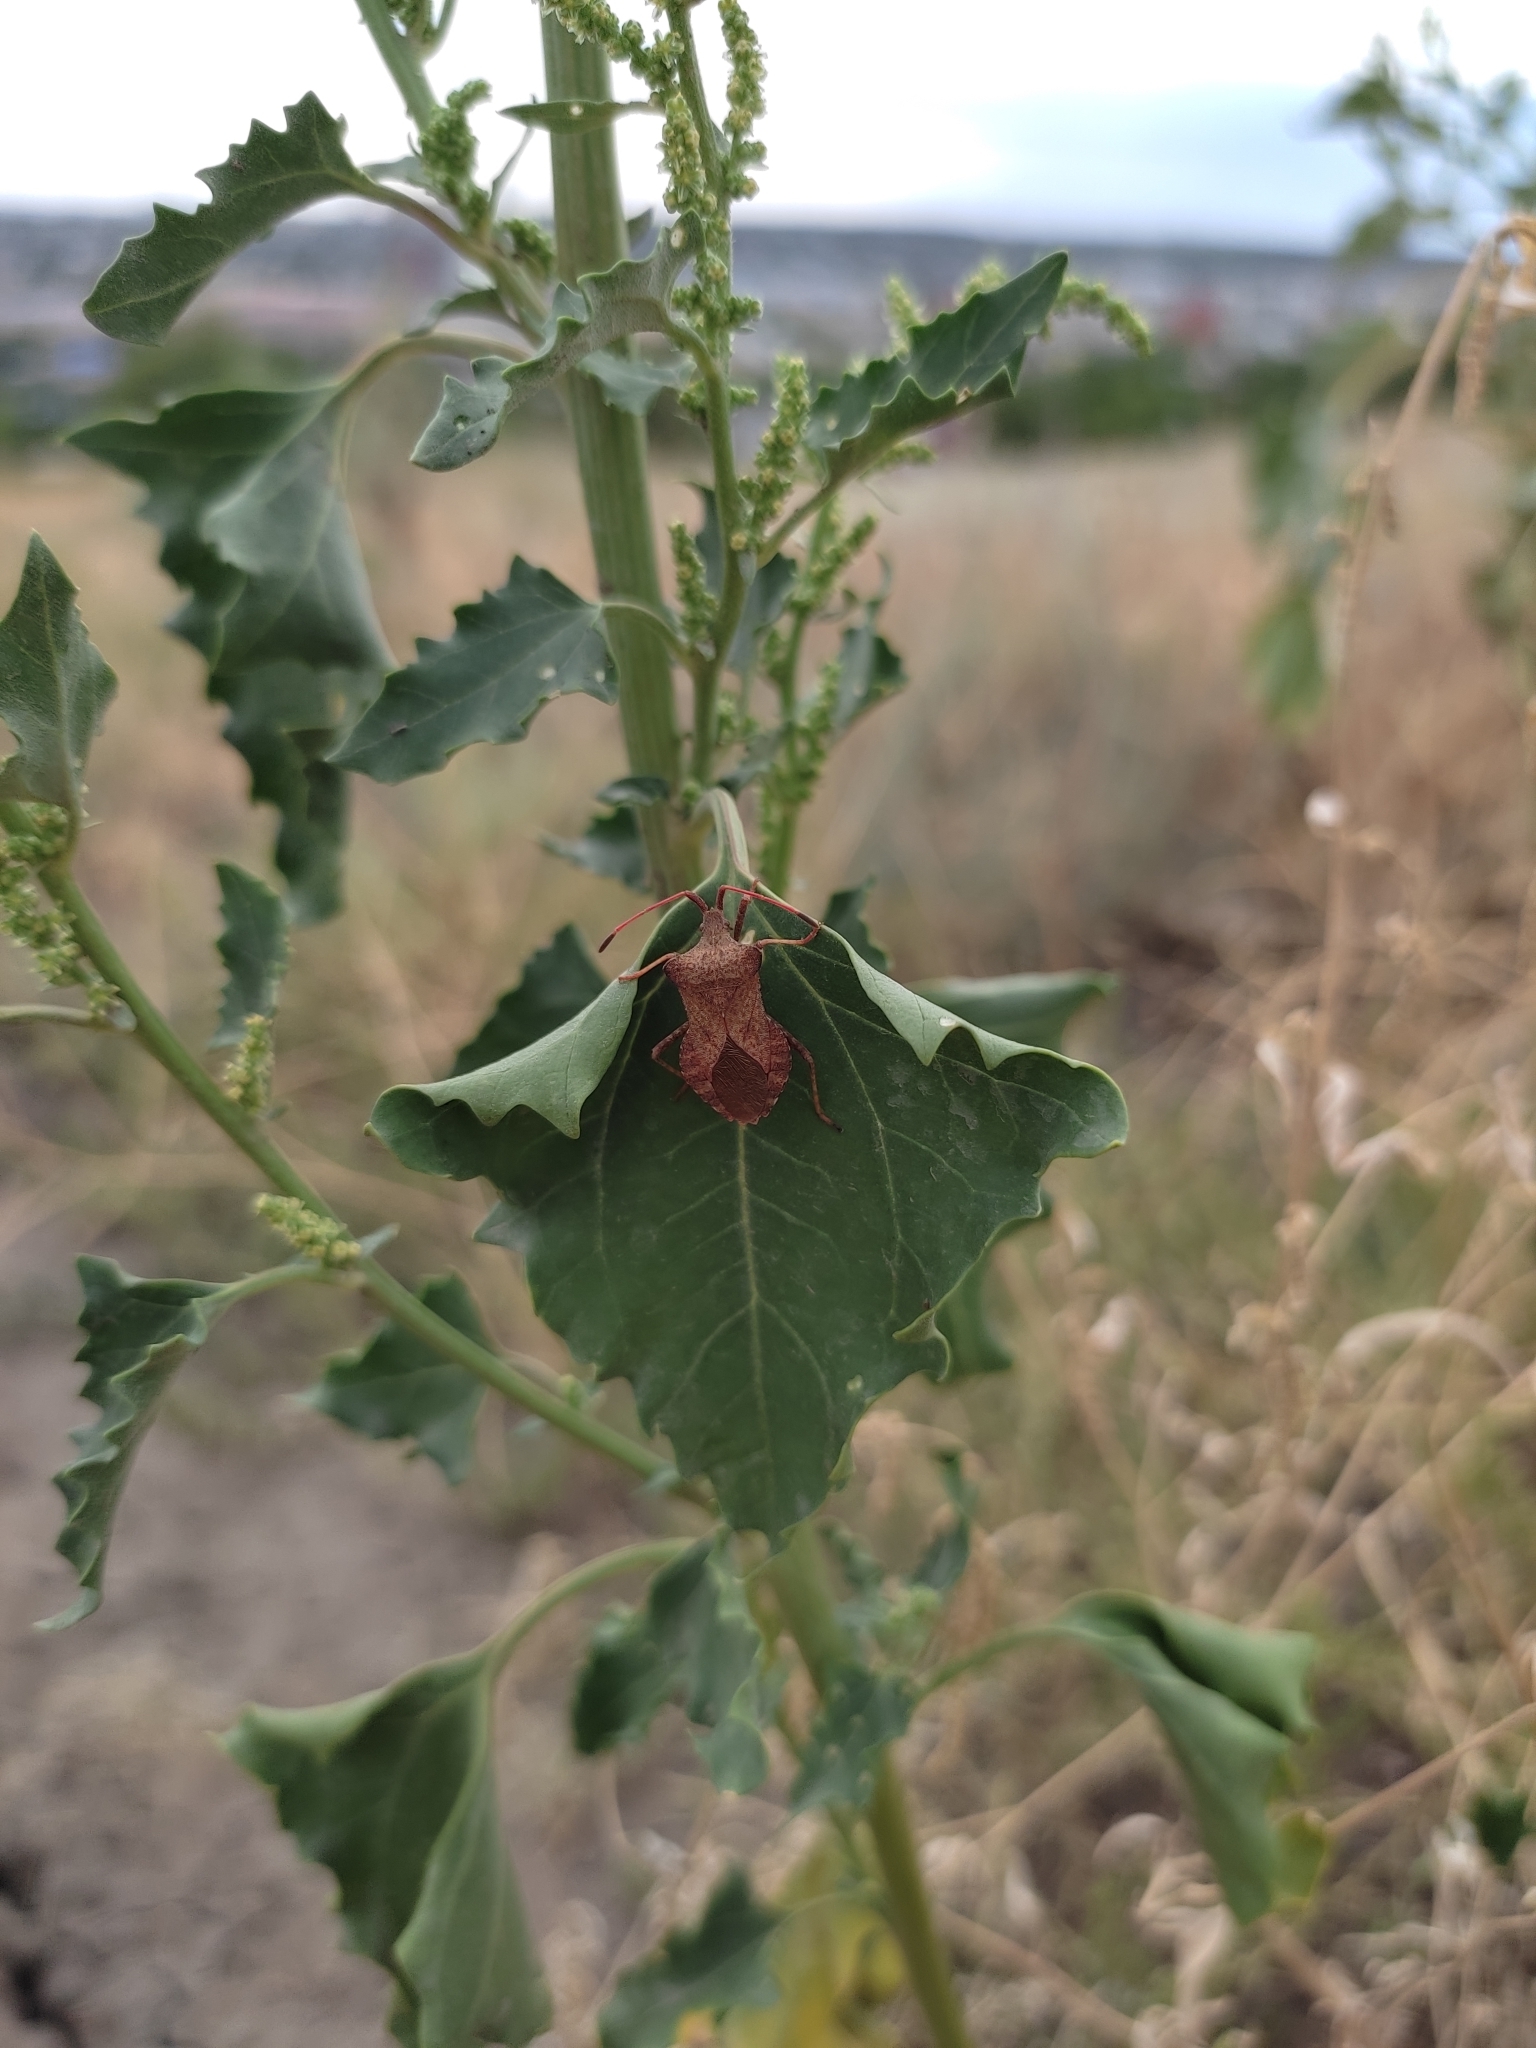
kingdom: Animalia
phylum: Arthropoda
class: Insecta
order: Hemiptera
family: Coreidae
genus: Coreus
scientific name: Coreus marginatus
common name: Dock bug
